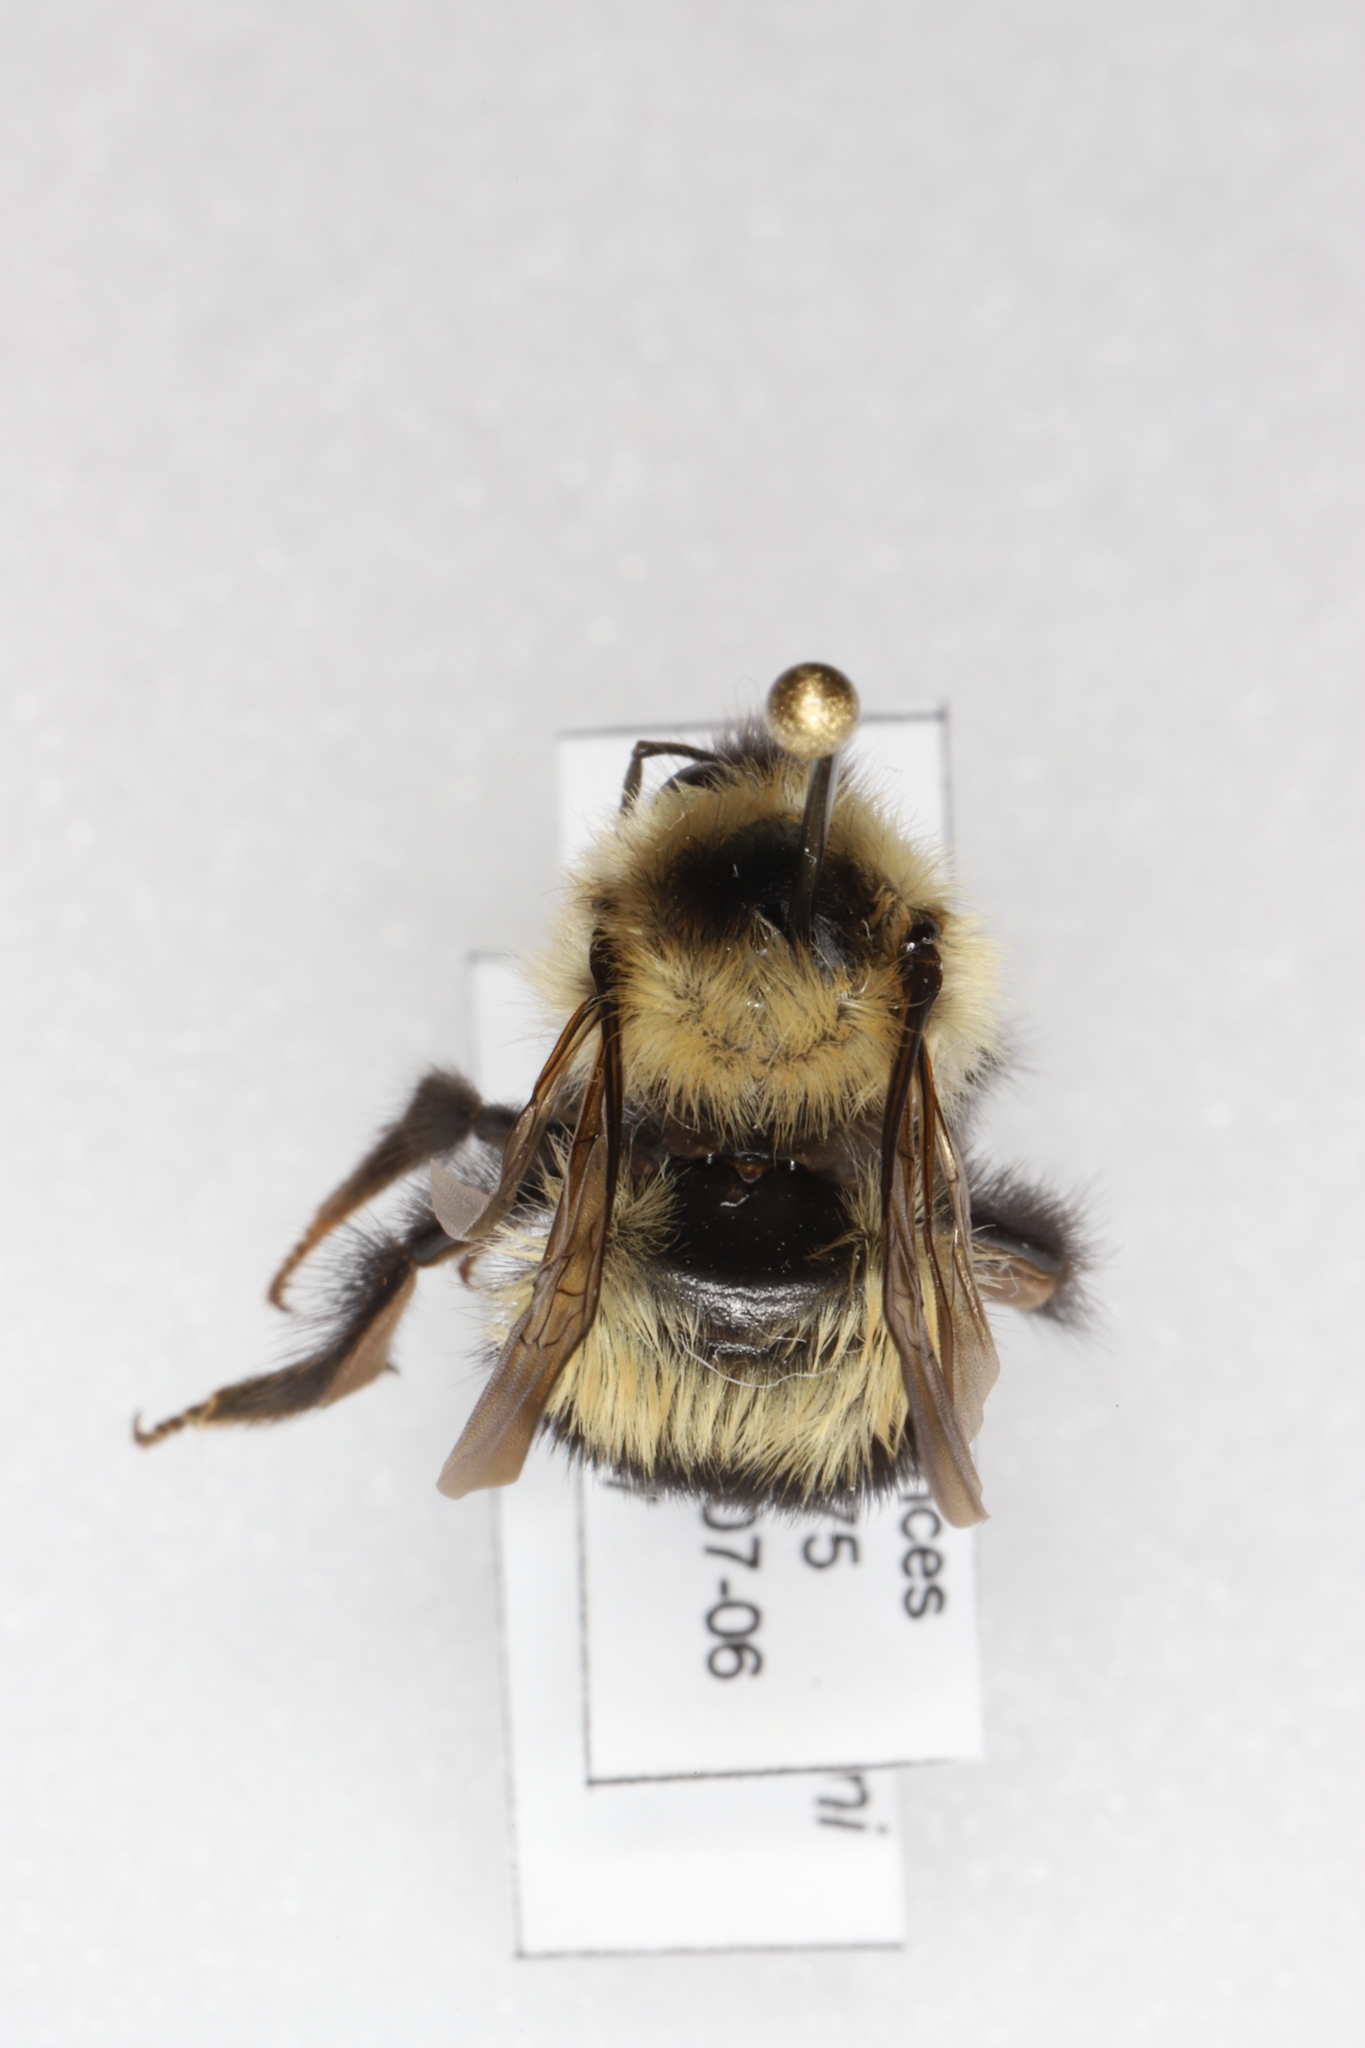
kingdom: Animalia
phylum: Arthropoda
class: Insecta
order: Hymenoptera
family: Apidae
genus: Bombus
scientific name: Bombus sandersoni
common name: Sanderson bumble bee
